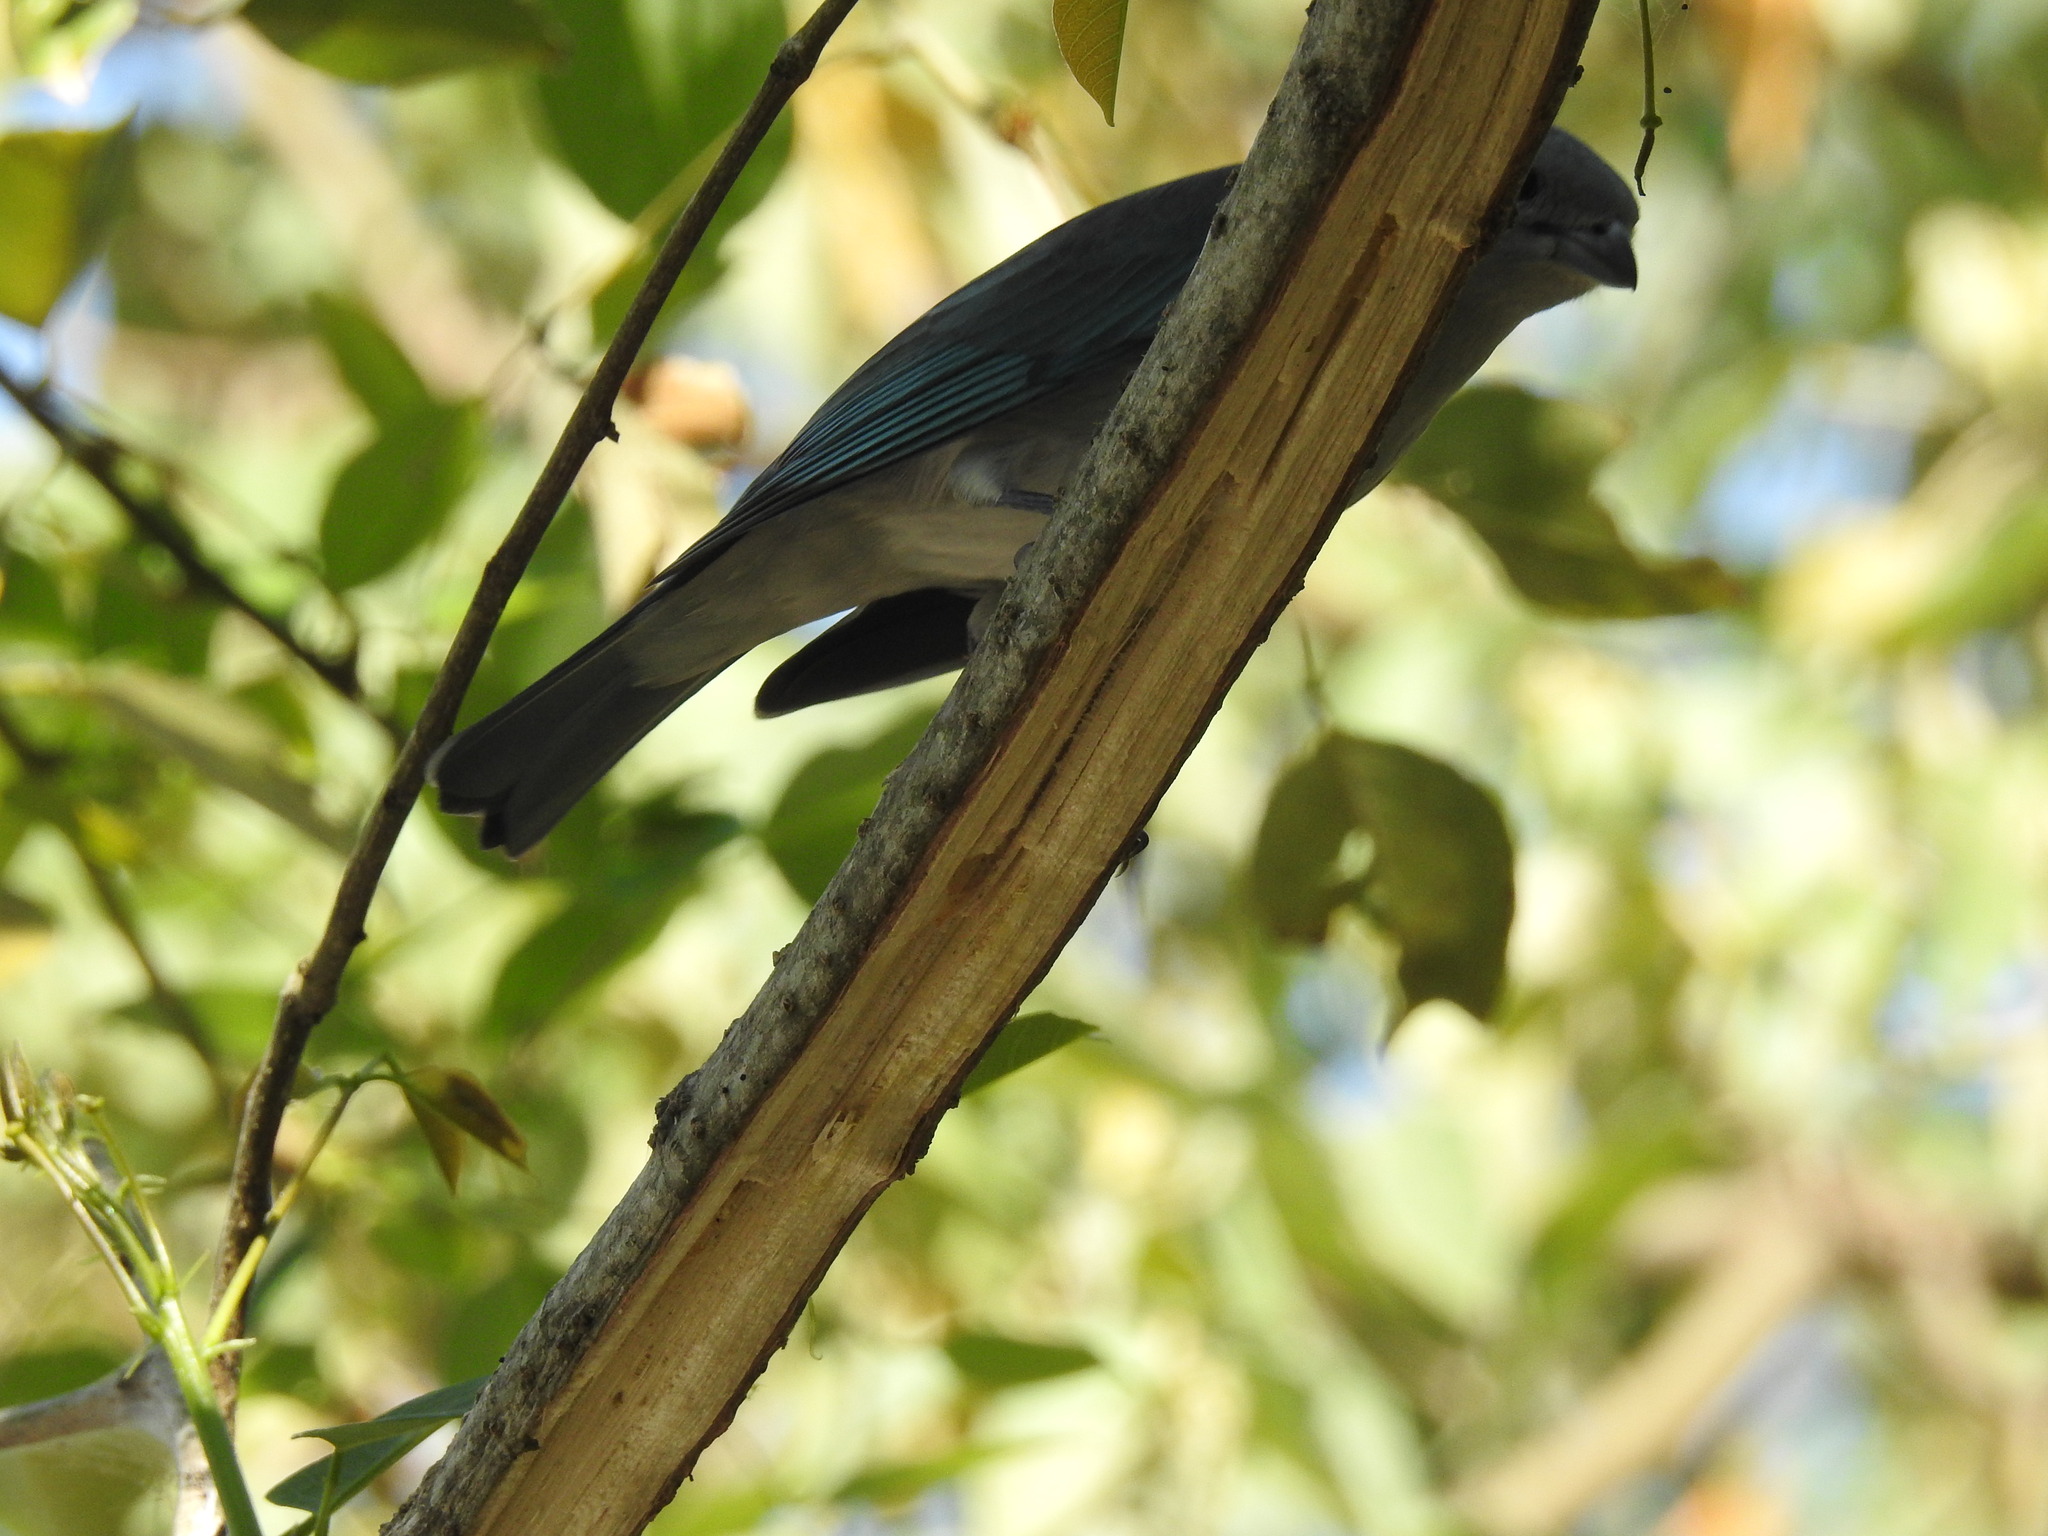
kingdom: Animalia
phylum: Chordata
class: Aves
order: Passeriformes
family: Thraupidae
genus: Thraupis
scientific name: Thraupis sayaca
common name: Sayaca tanager
